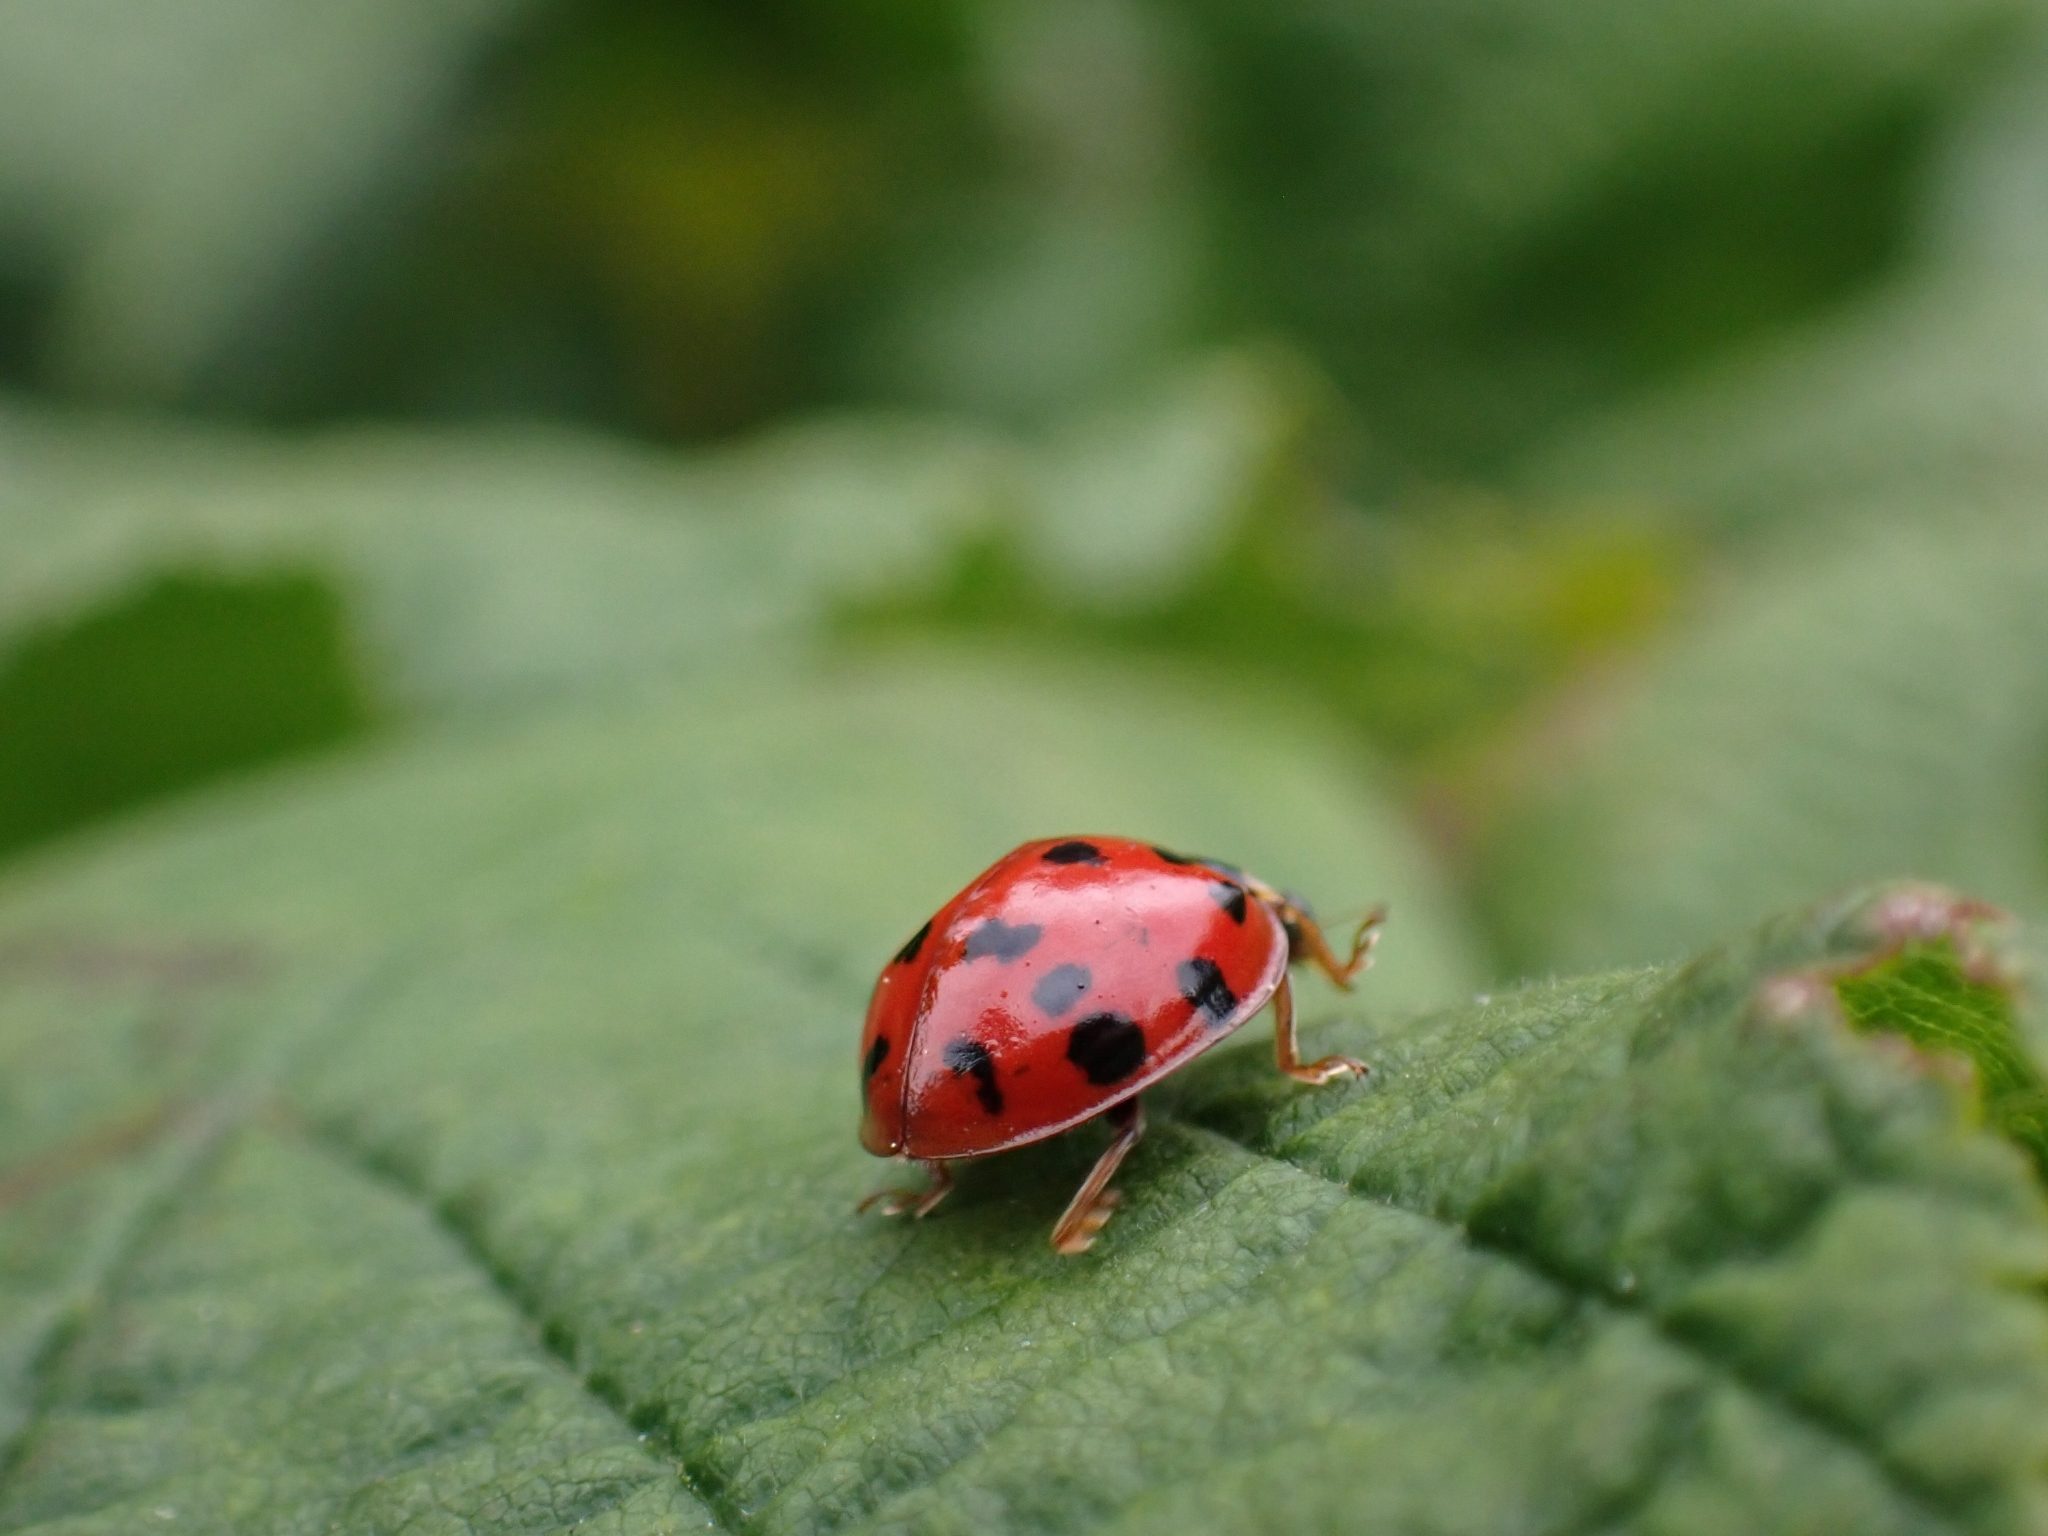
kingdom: Animalia
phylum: Arthropoda
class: Insecta
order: Coleoptera
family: Coccinellidae
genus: Harmonia
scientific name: Harmonia axyridis
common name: Harlequin ladybird
